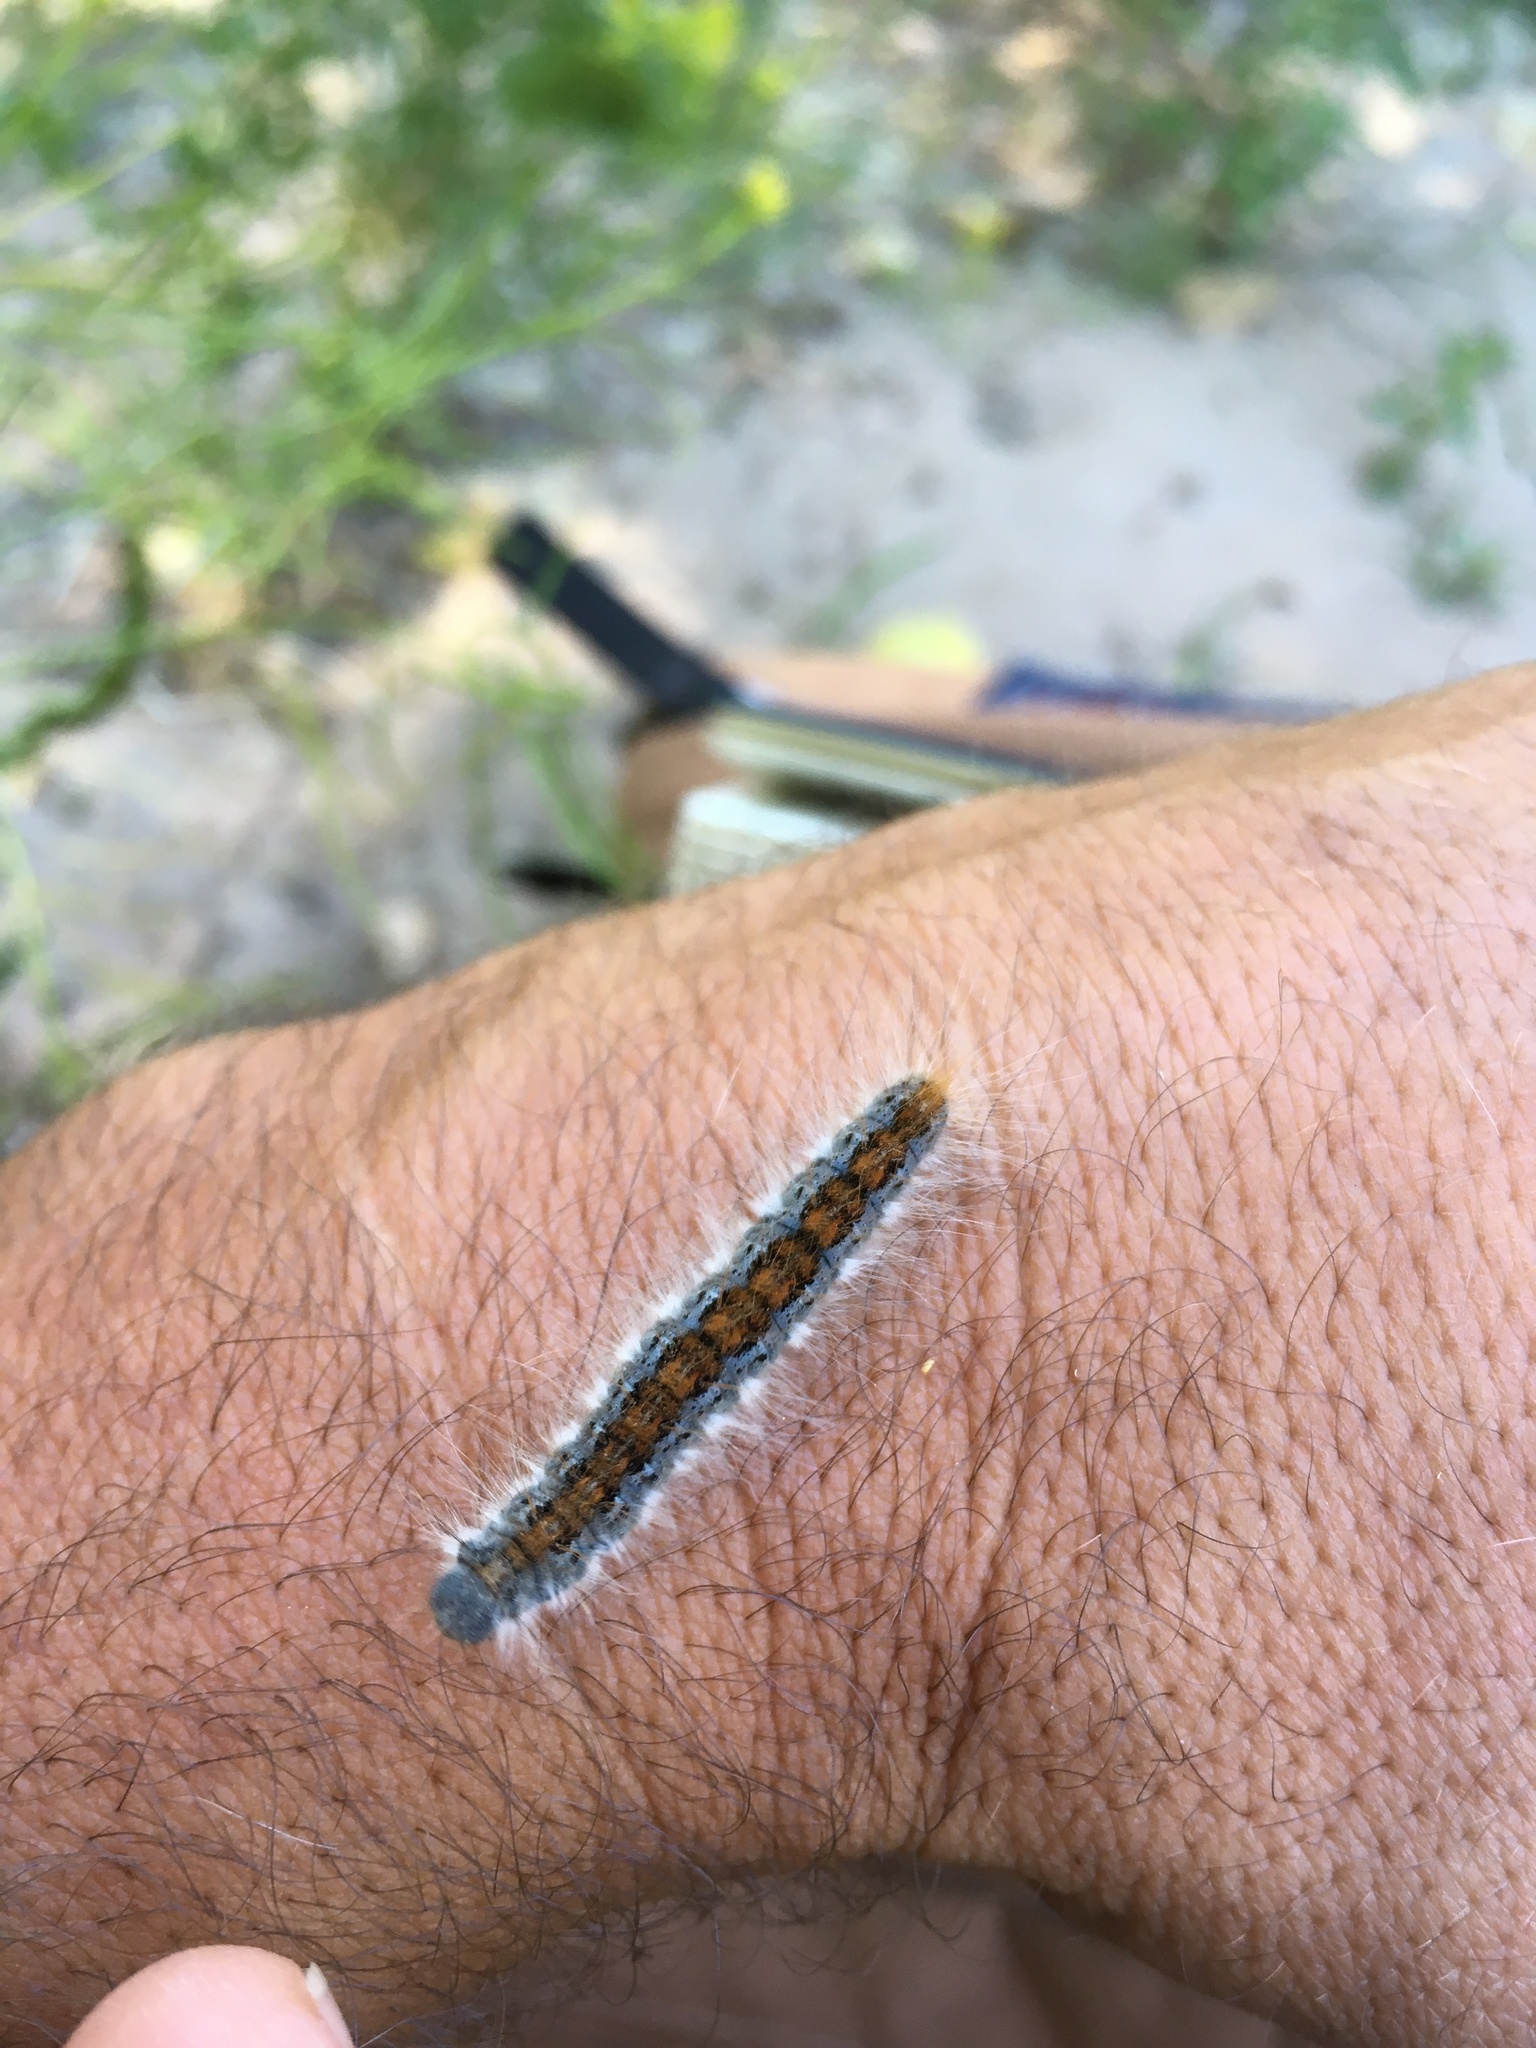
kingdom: Animalia
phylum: Arthropoda
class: Insecta
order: Lepidoptera
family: Lasiocampidae
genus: Malacosoma
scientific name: Malacosoma incurva
